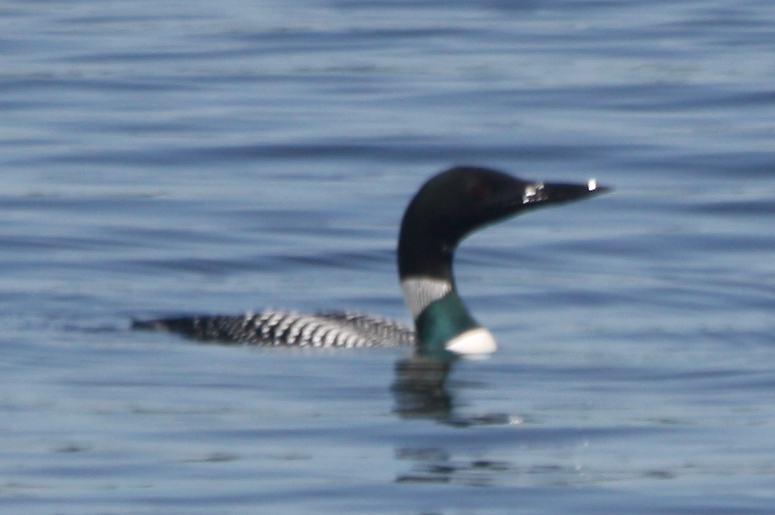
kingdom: Animalia
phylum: Chordata
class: Aves
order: Gaviiformes
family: Gaviidae
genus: Gavia
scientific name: Gavia immer
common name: Common loon
